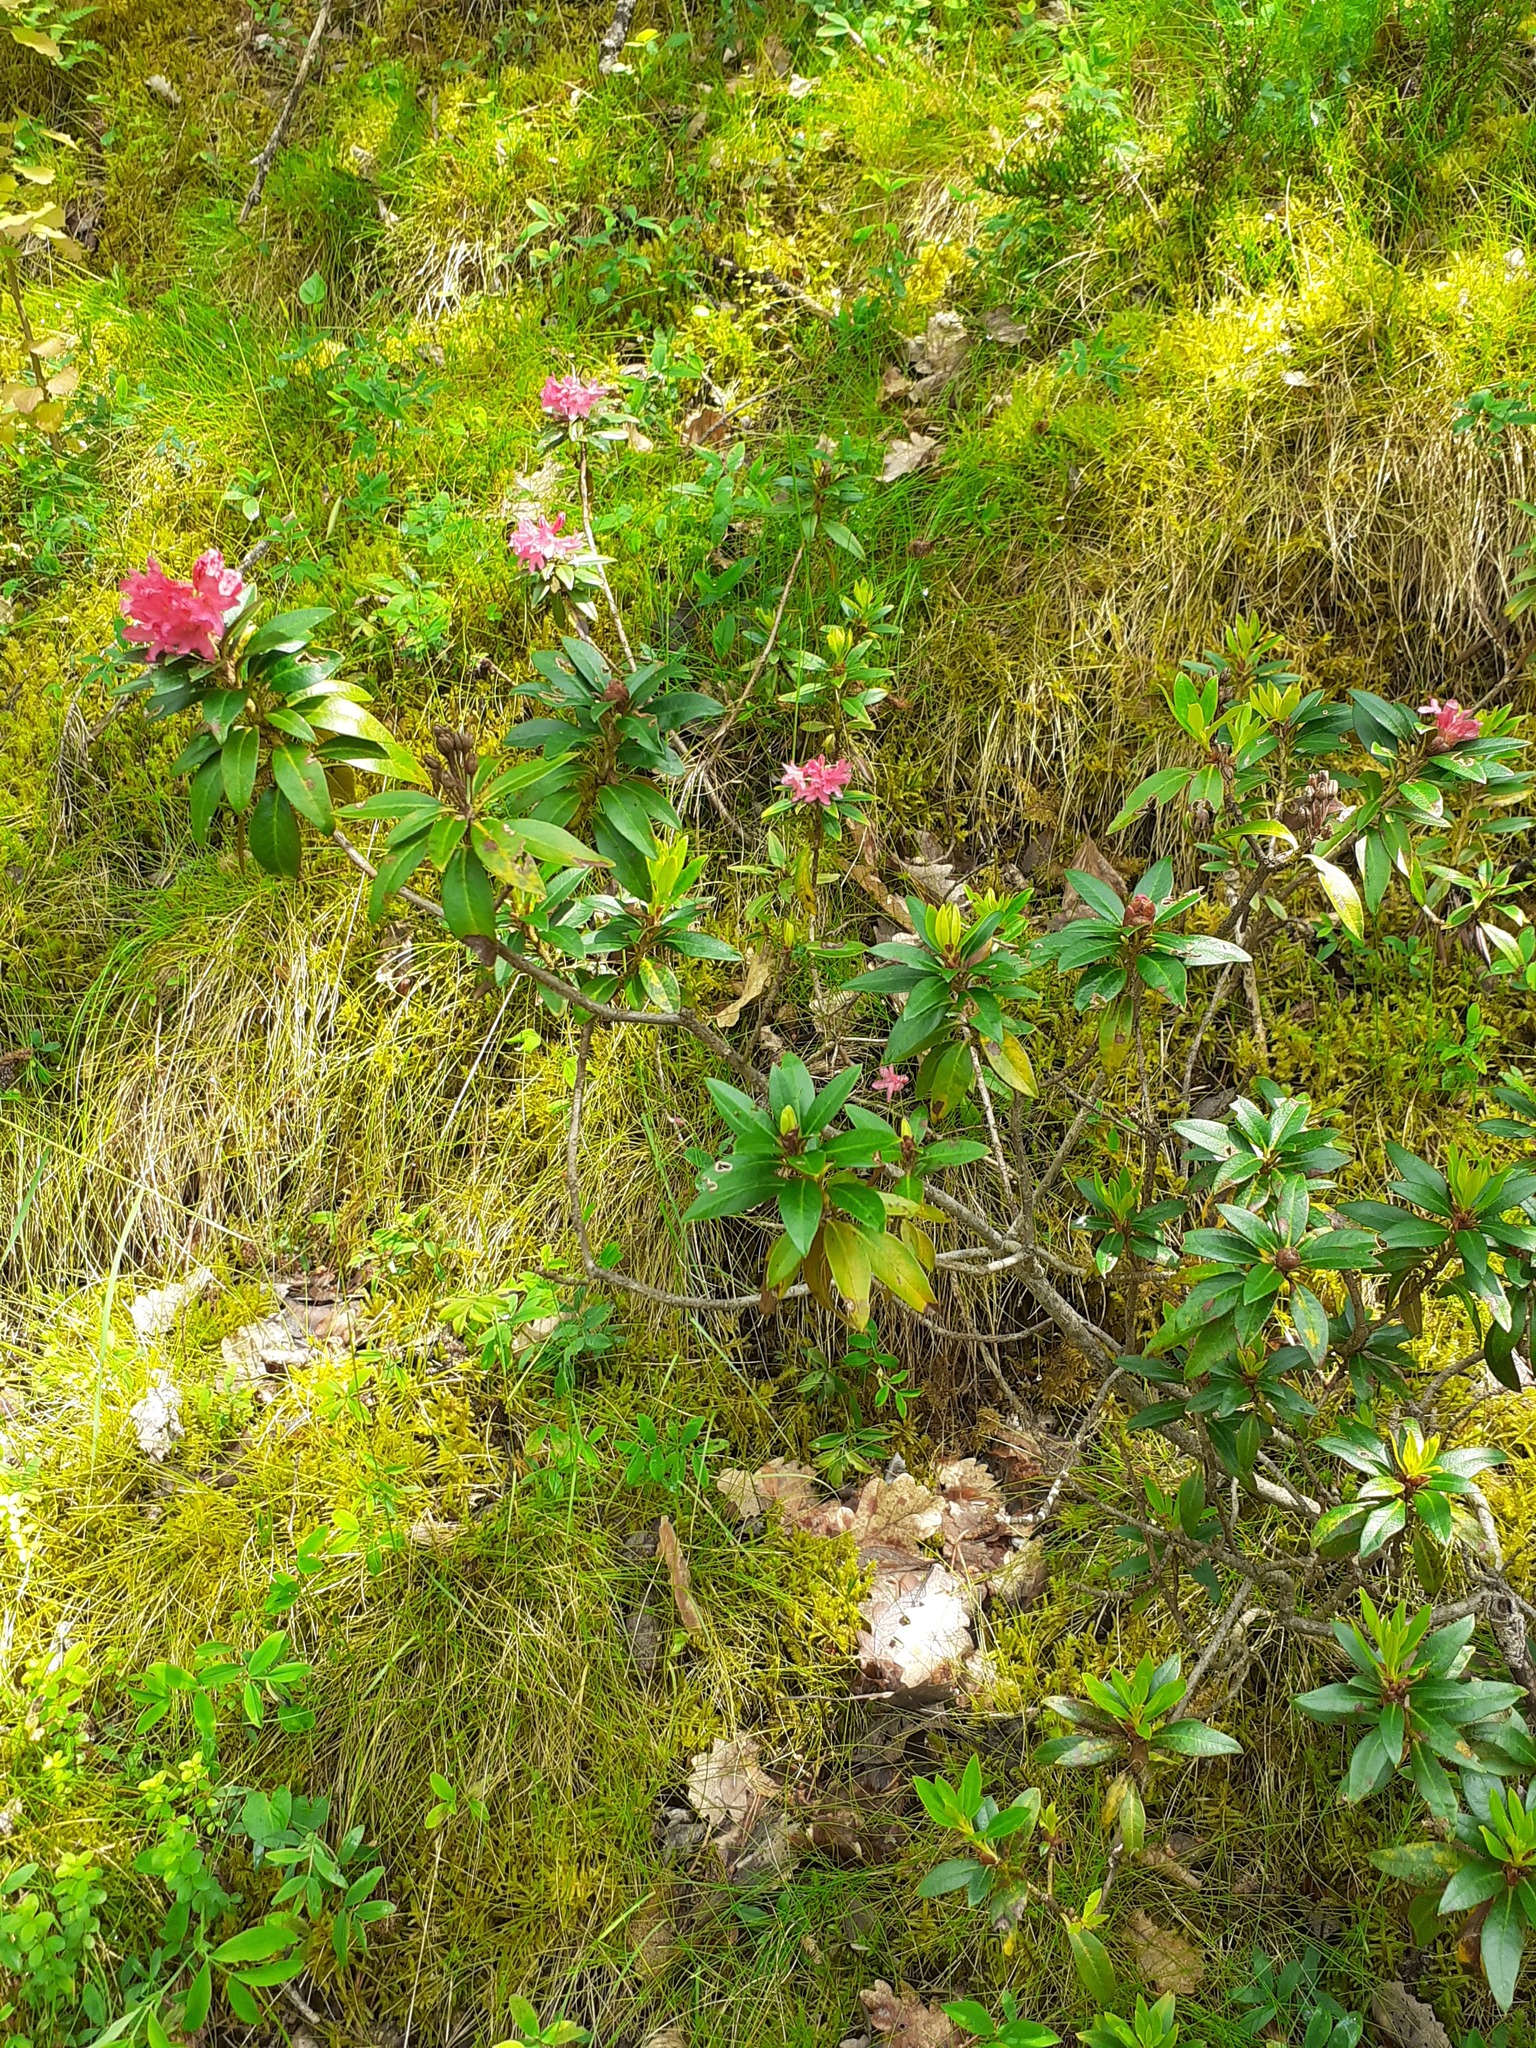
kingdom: Plantae
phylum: Tracheophyta
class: Magnoliopsida
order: Ericales
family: Ericaceae
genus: Rhododendron
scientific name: Rhododendron ferrugineum
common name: Alpenrose
